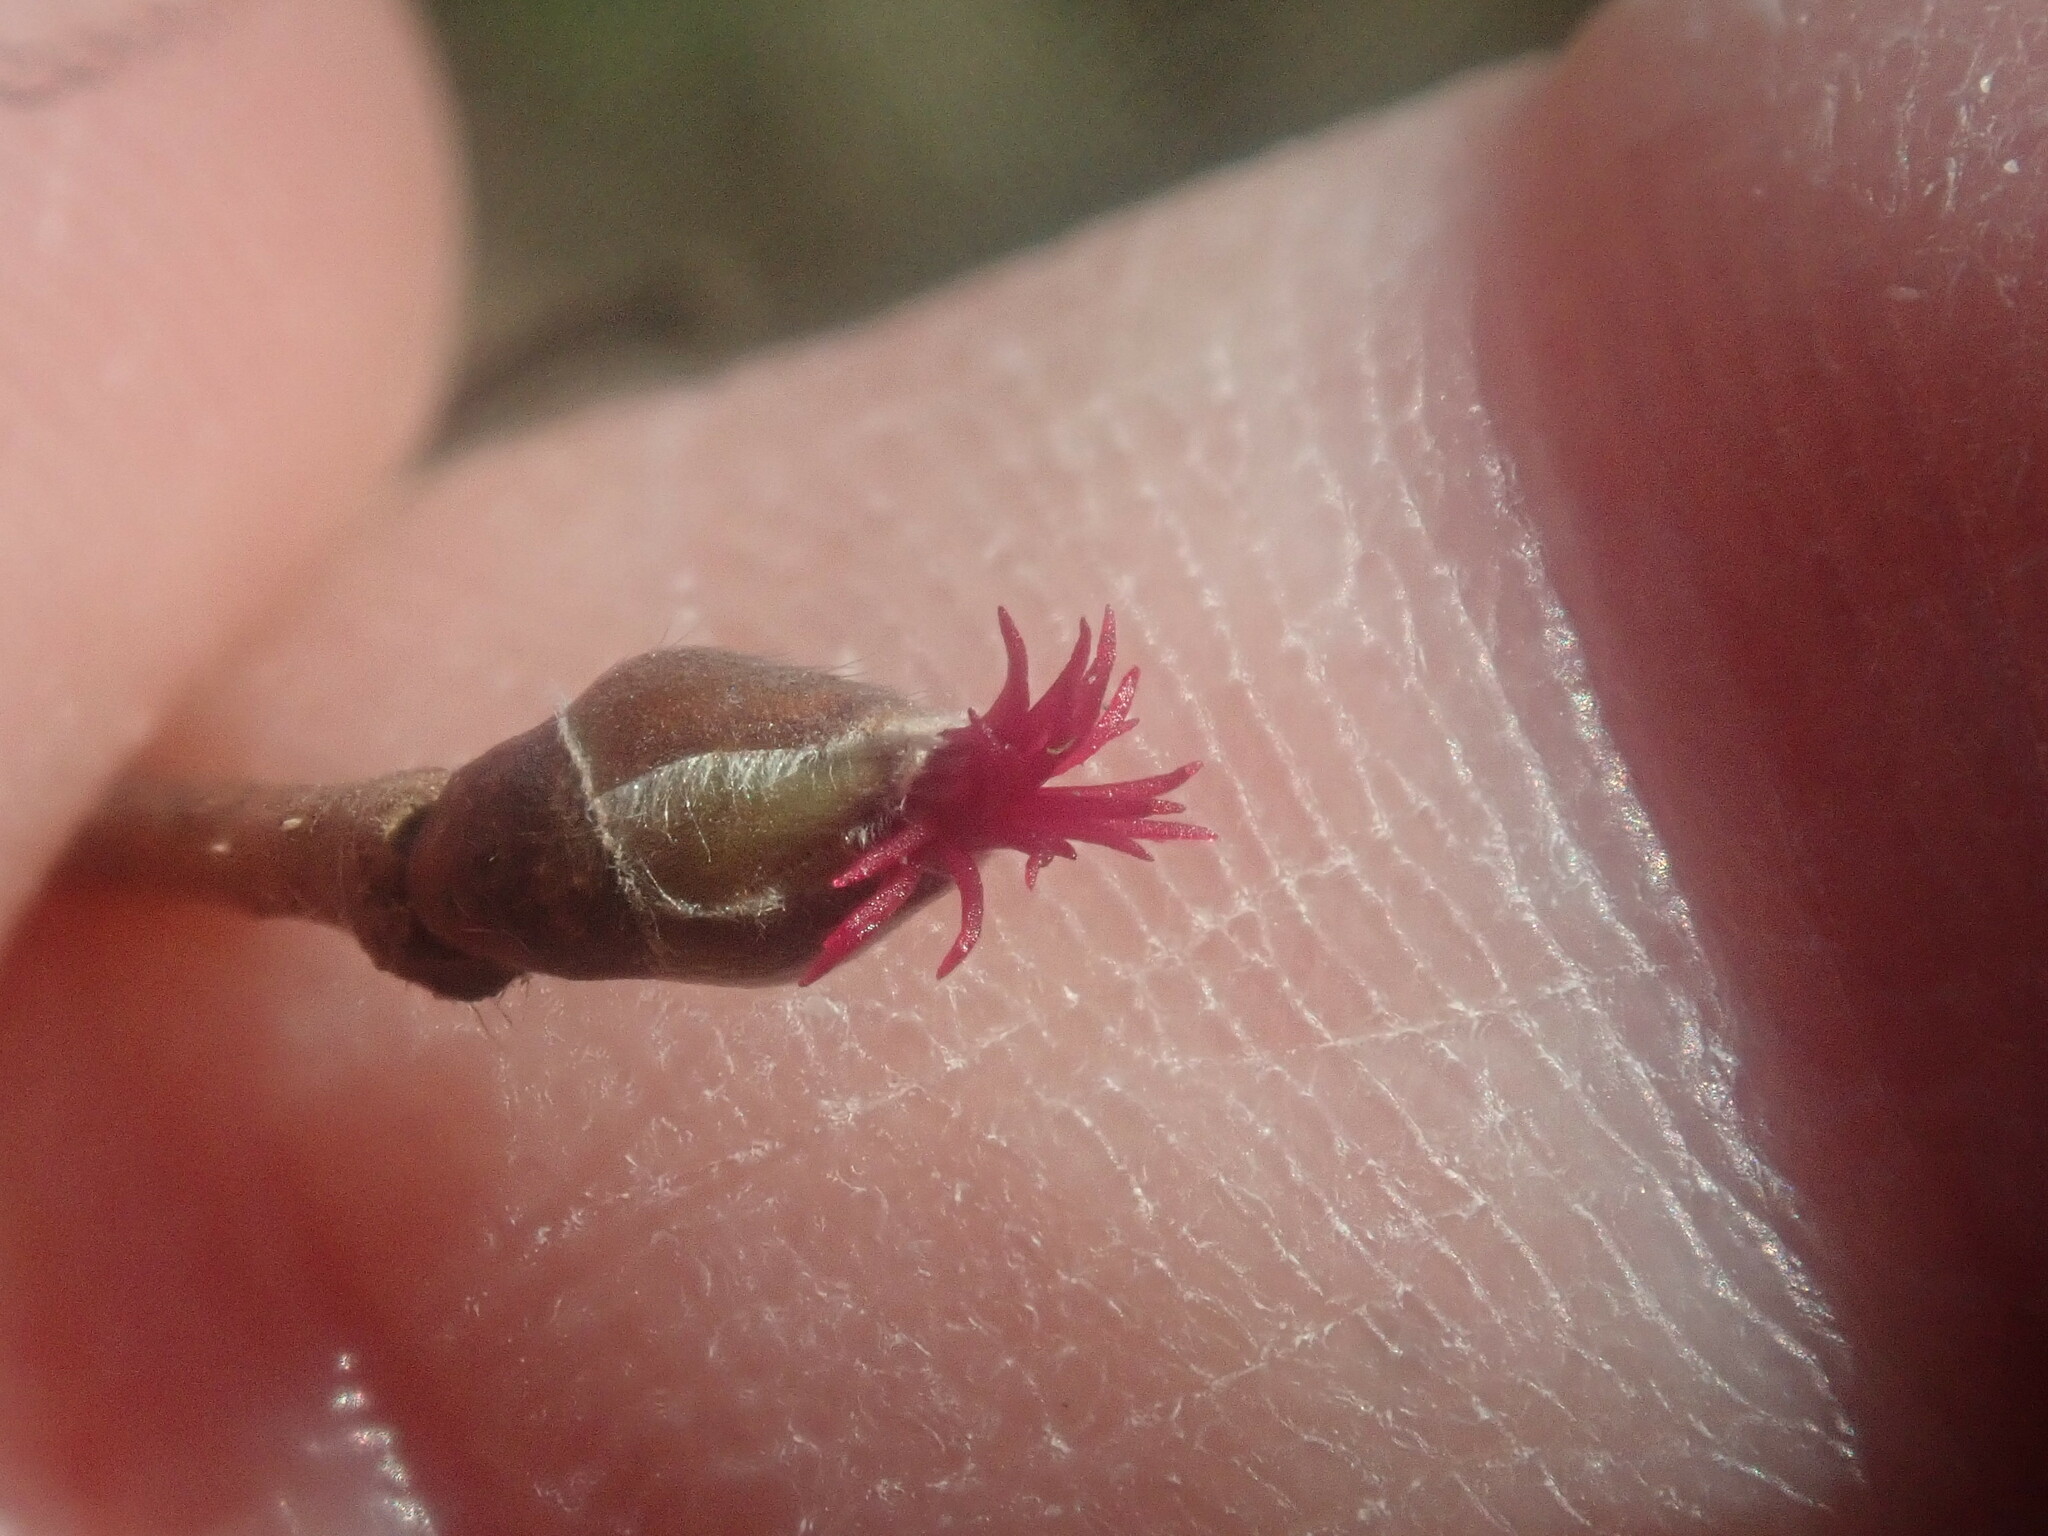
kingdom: Plantae
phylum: Tracheophyta
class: Magnoliopsida
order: Fagales
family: Betulaceae
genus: Corylus
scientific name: Corylus cornuta
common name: Beaked hazel
